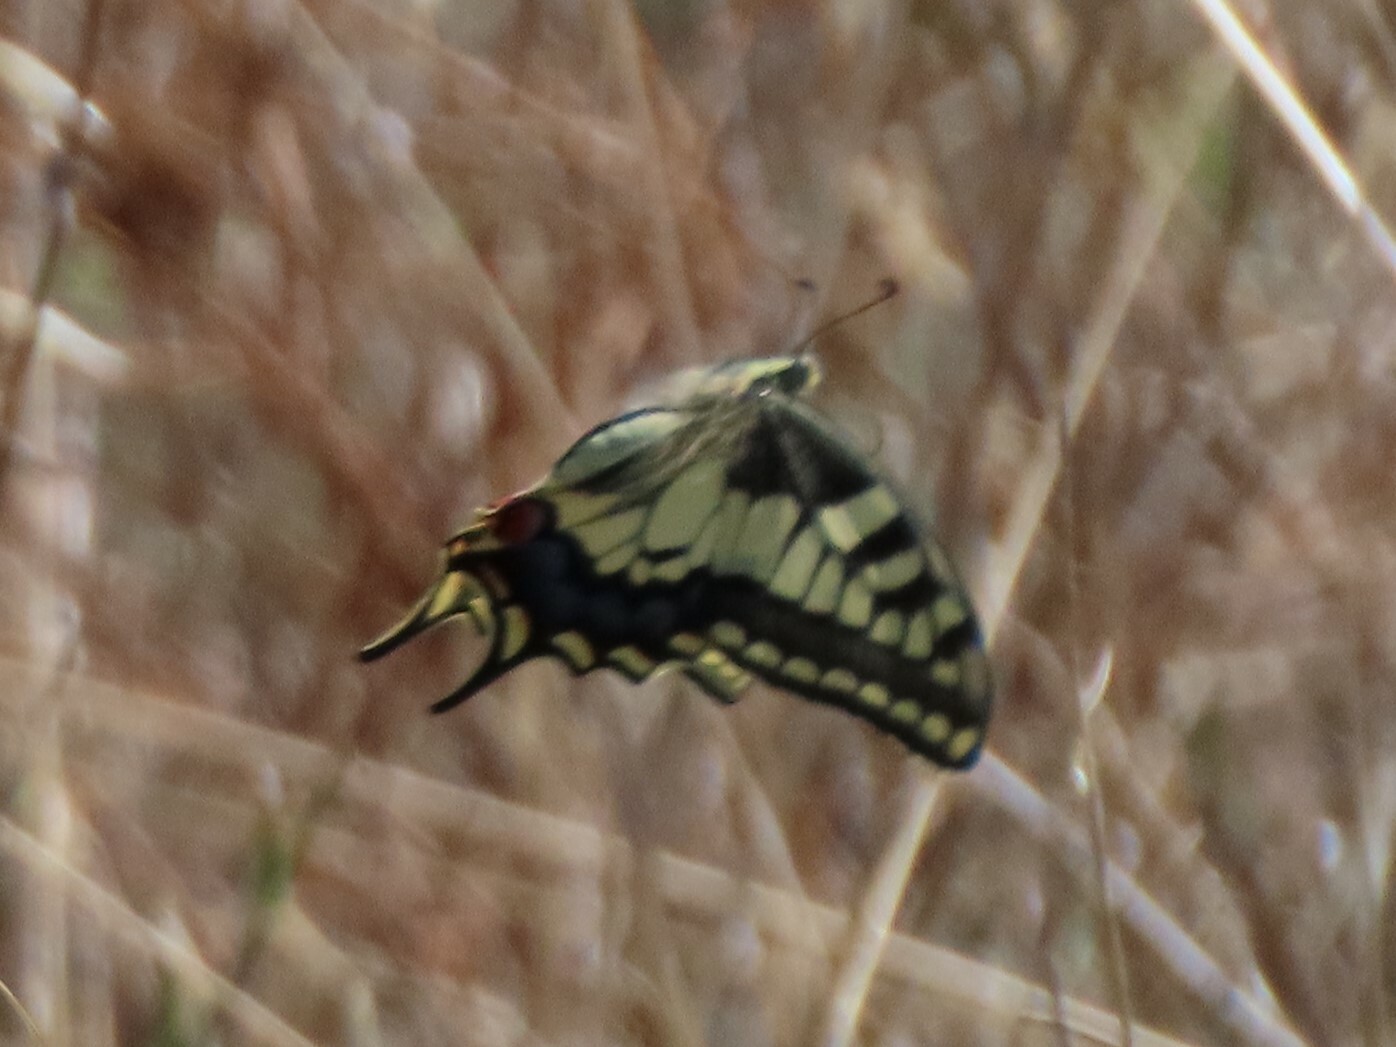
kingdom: Animalia
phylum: Arthropoda
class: Insecta
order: Lepidoptera
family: Papilionidae
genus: Papilio
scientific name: Papilio machaon
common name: Swallowtail
